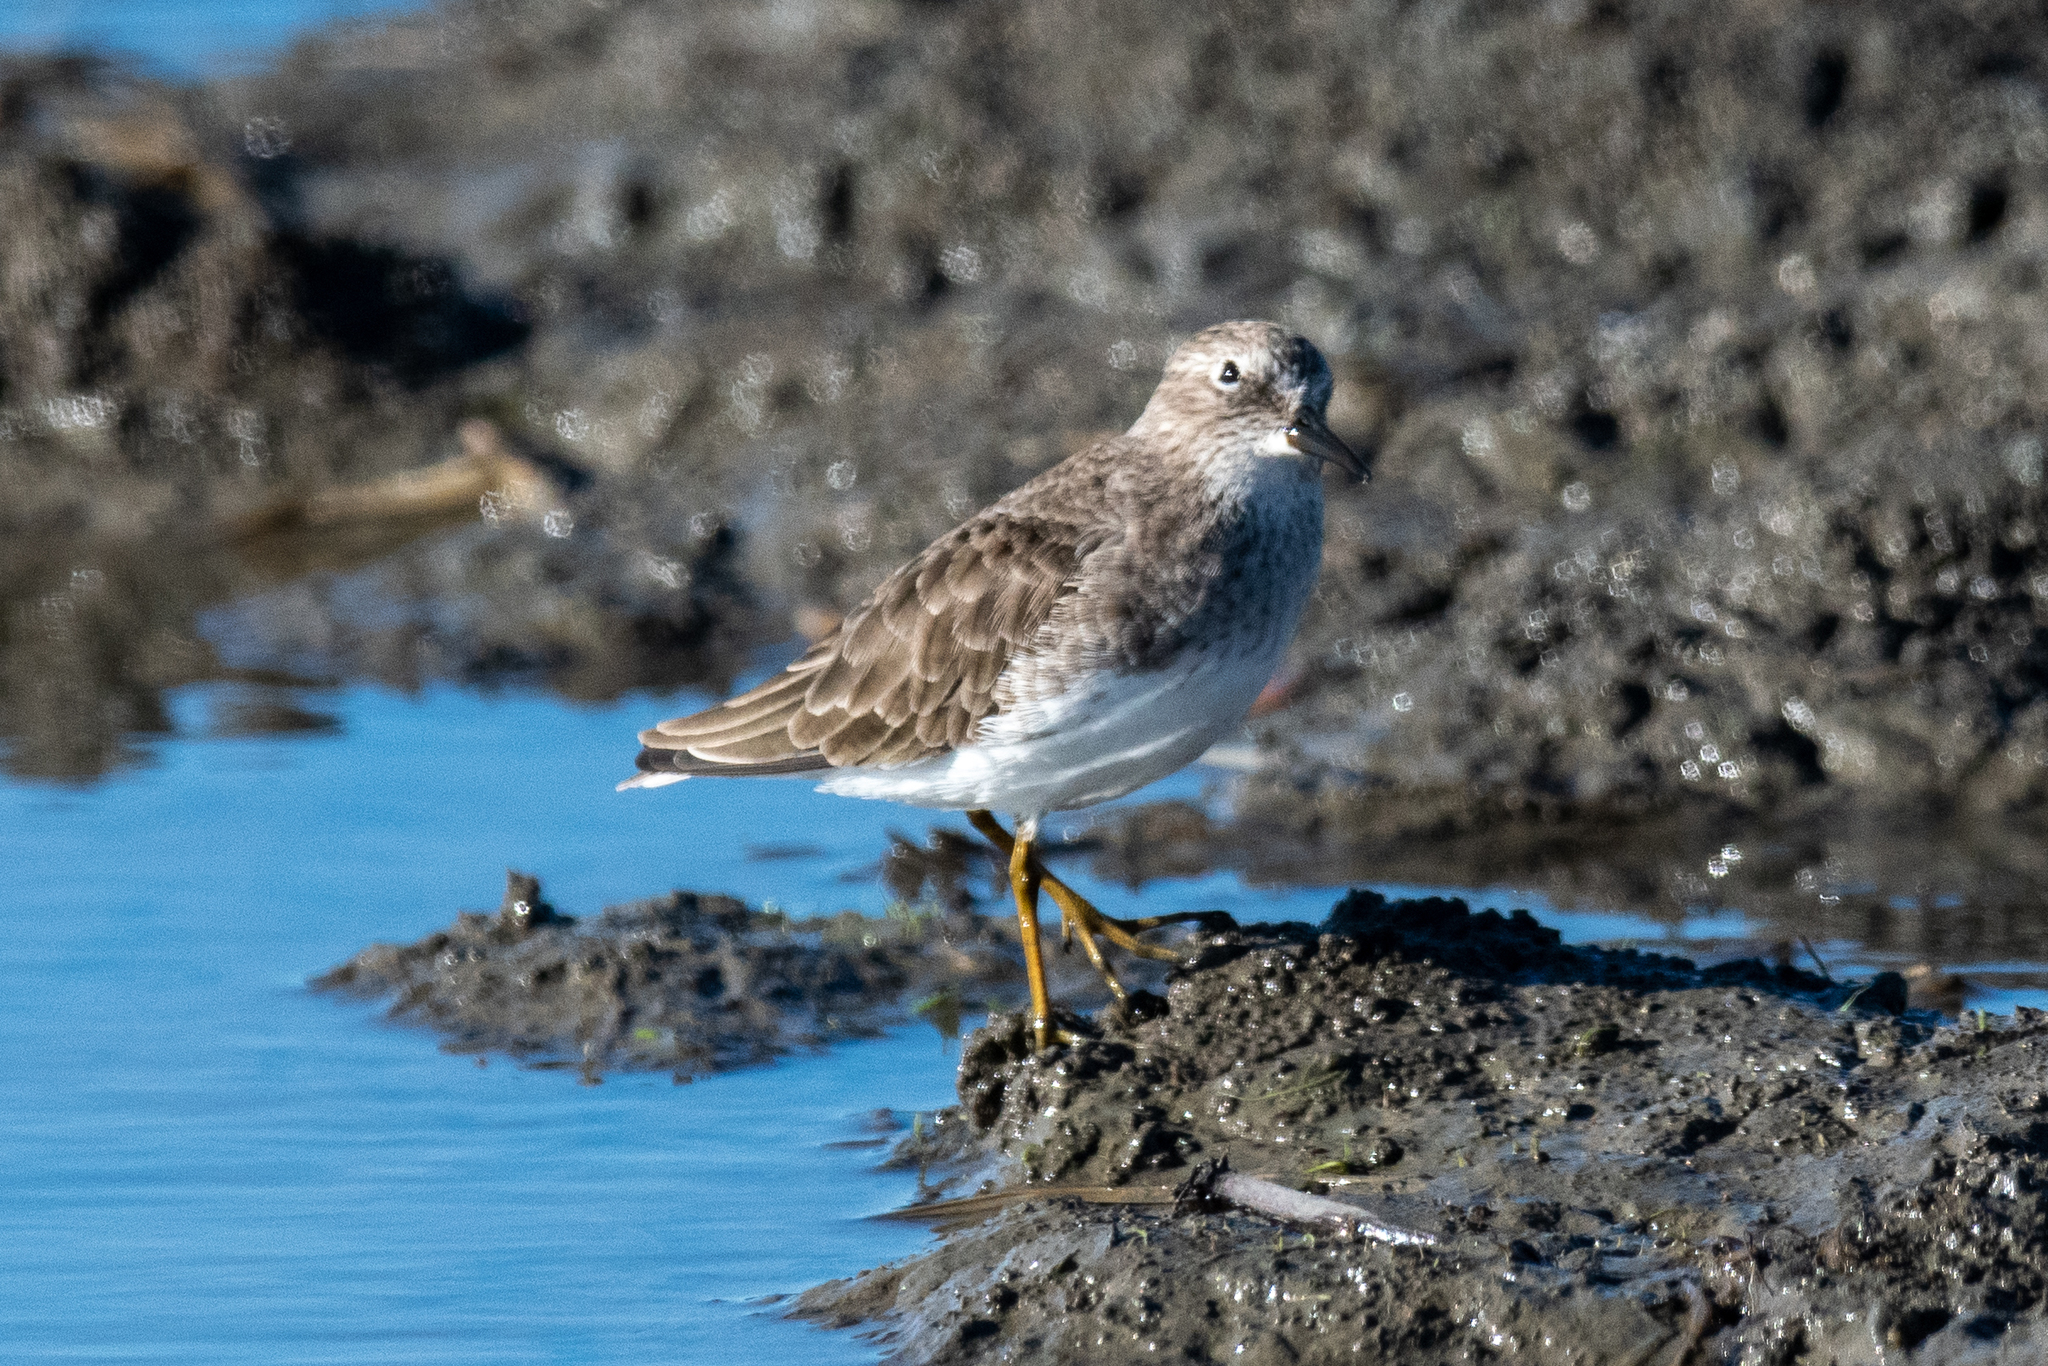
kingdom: Animalia
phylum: Chordata
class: Aves
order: Charadriiformes
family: Scolopacidae
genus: Calidris
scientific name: Calidris minutilla
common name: Least sandpiper
